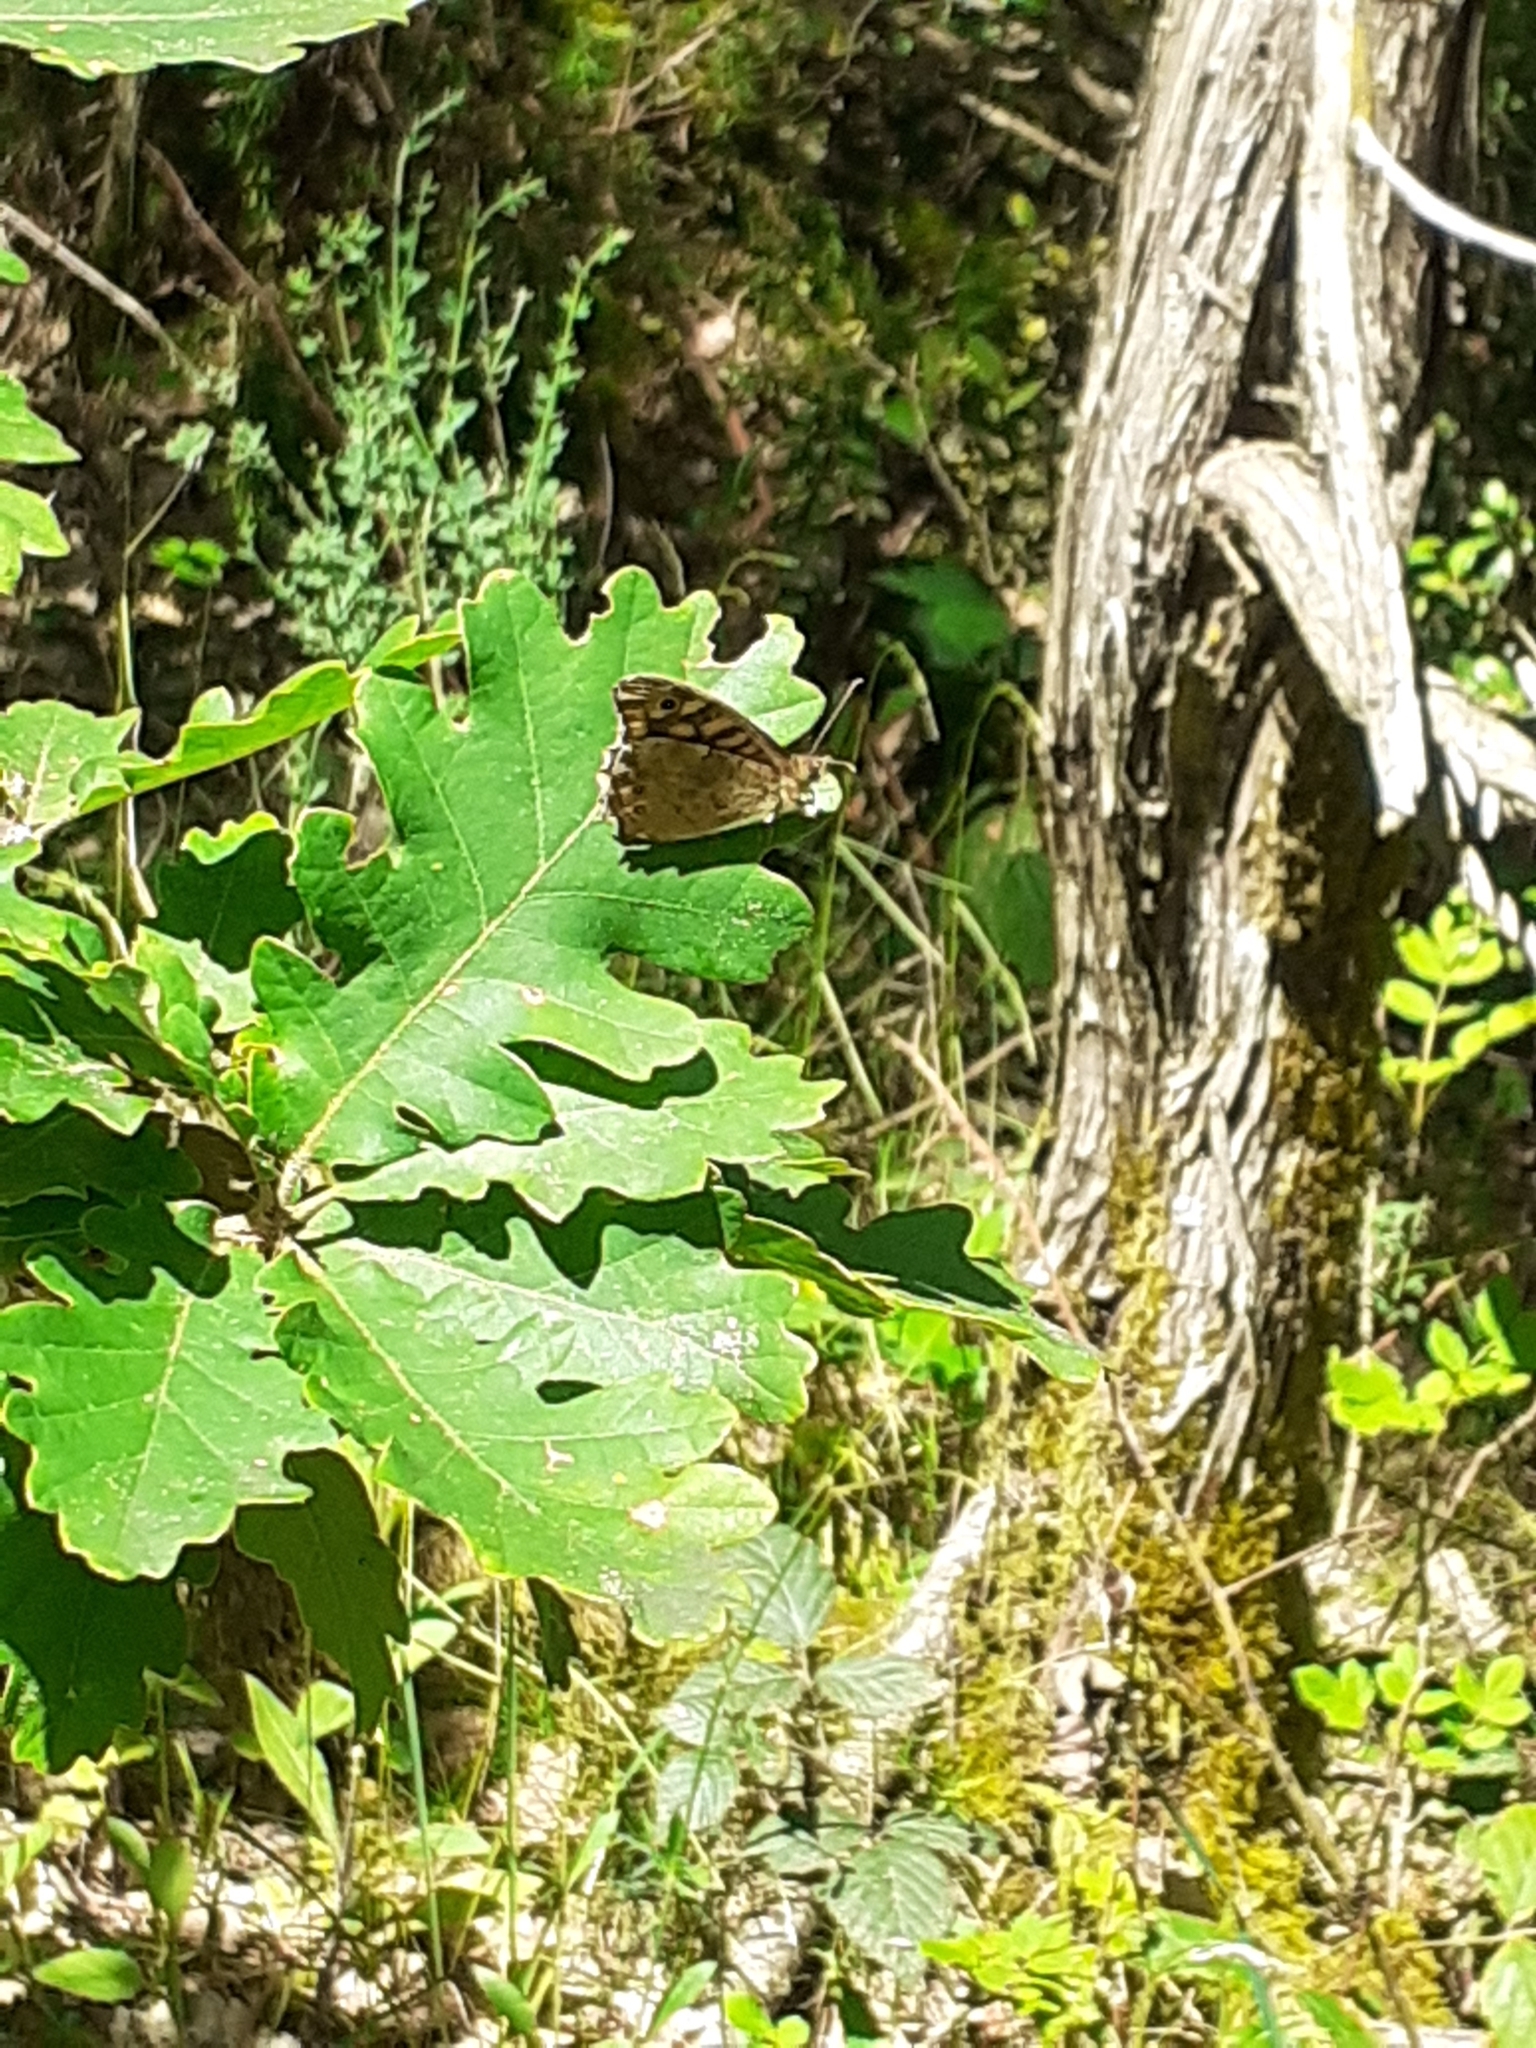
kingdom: Animalia
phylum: Arthropoda
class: Insecta
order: Lepidoptera
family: Nymphalidae
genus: Pararge
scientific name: Pararge aegeria
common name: Speckled wood
